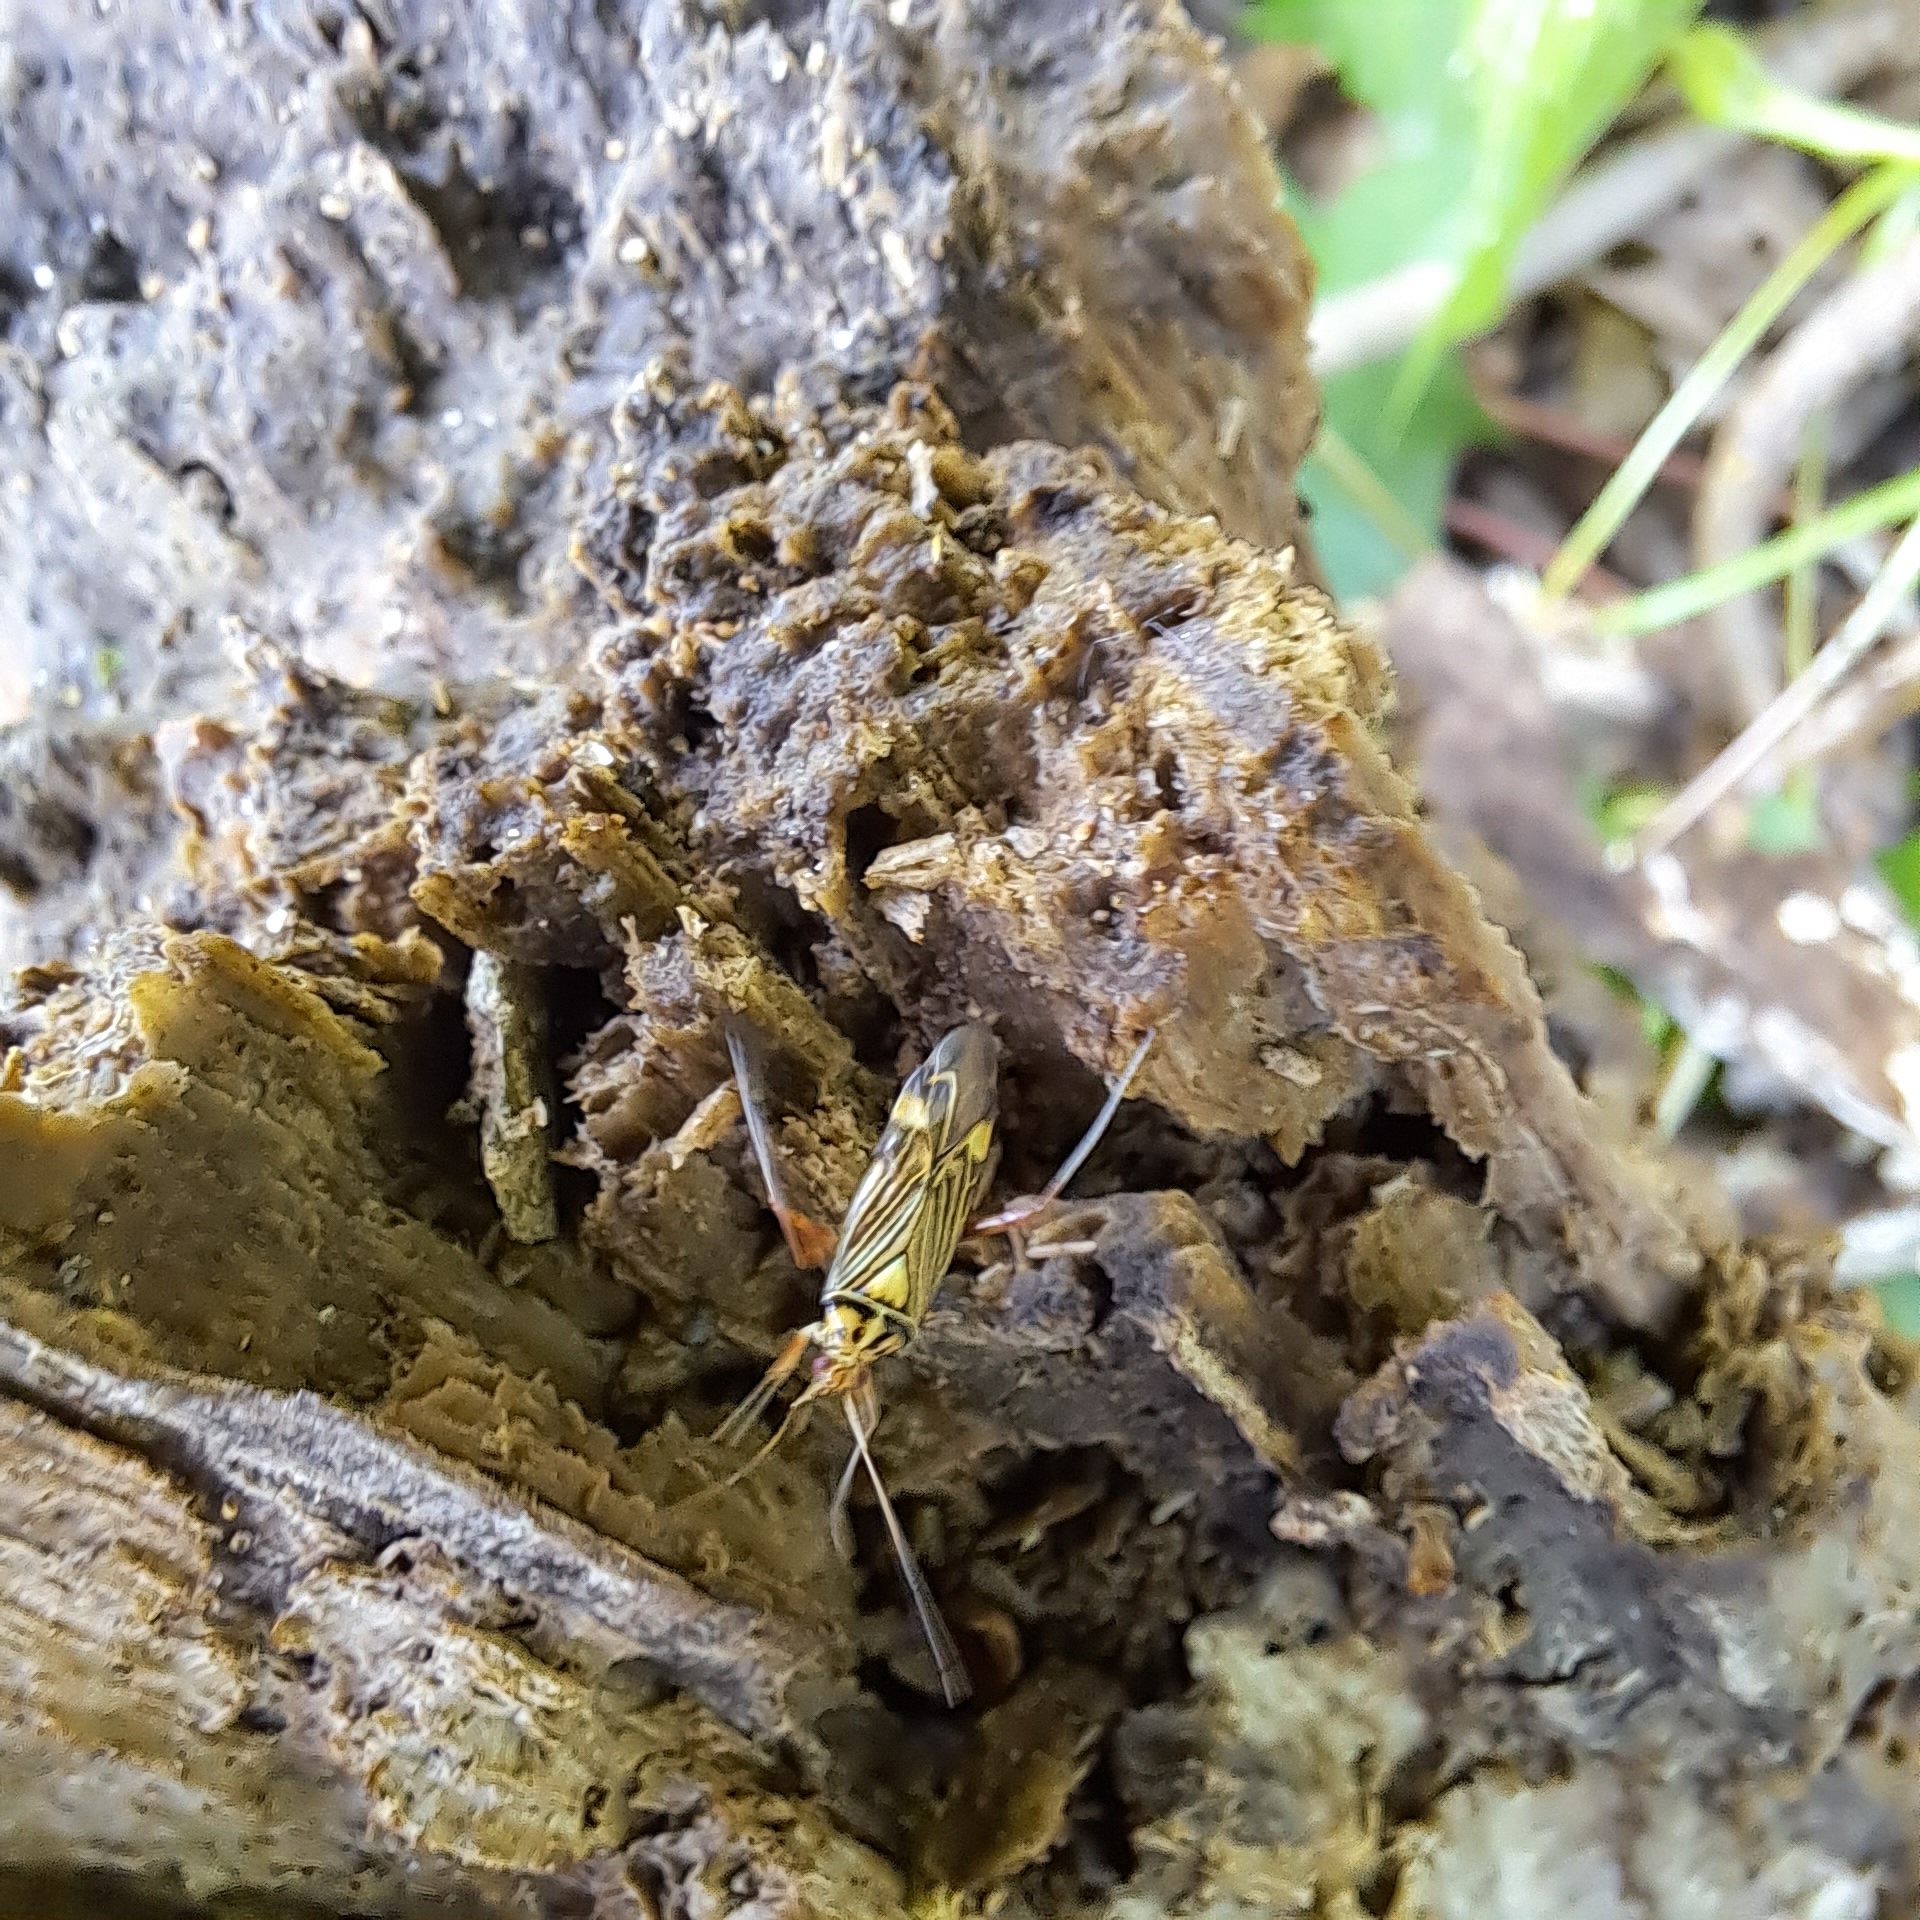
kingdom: Animalia
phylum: Arthropoda
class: Insecta
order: Hemiptera
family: Miridae
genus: Rhabdomiris
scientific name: Rhabdomiris striatellus
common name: Plant bug
